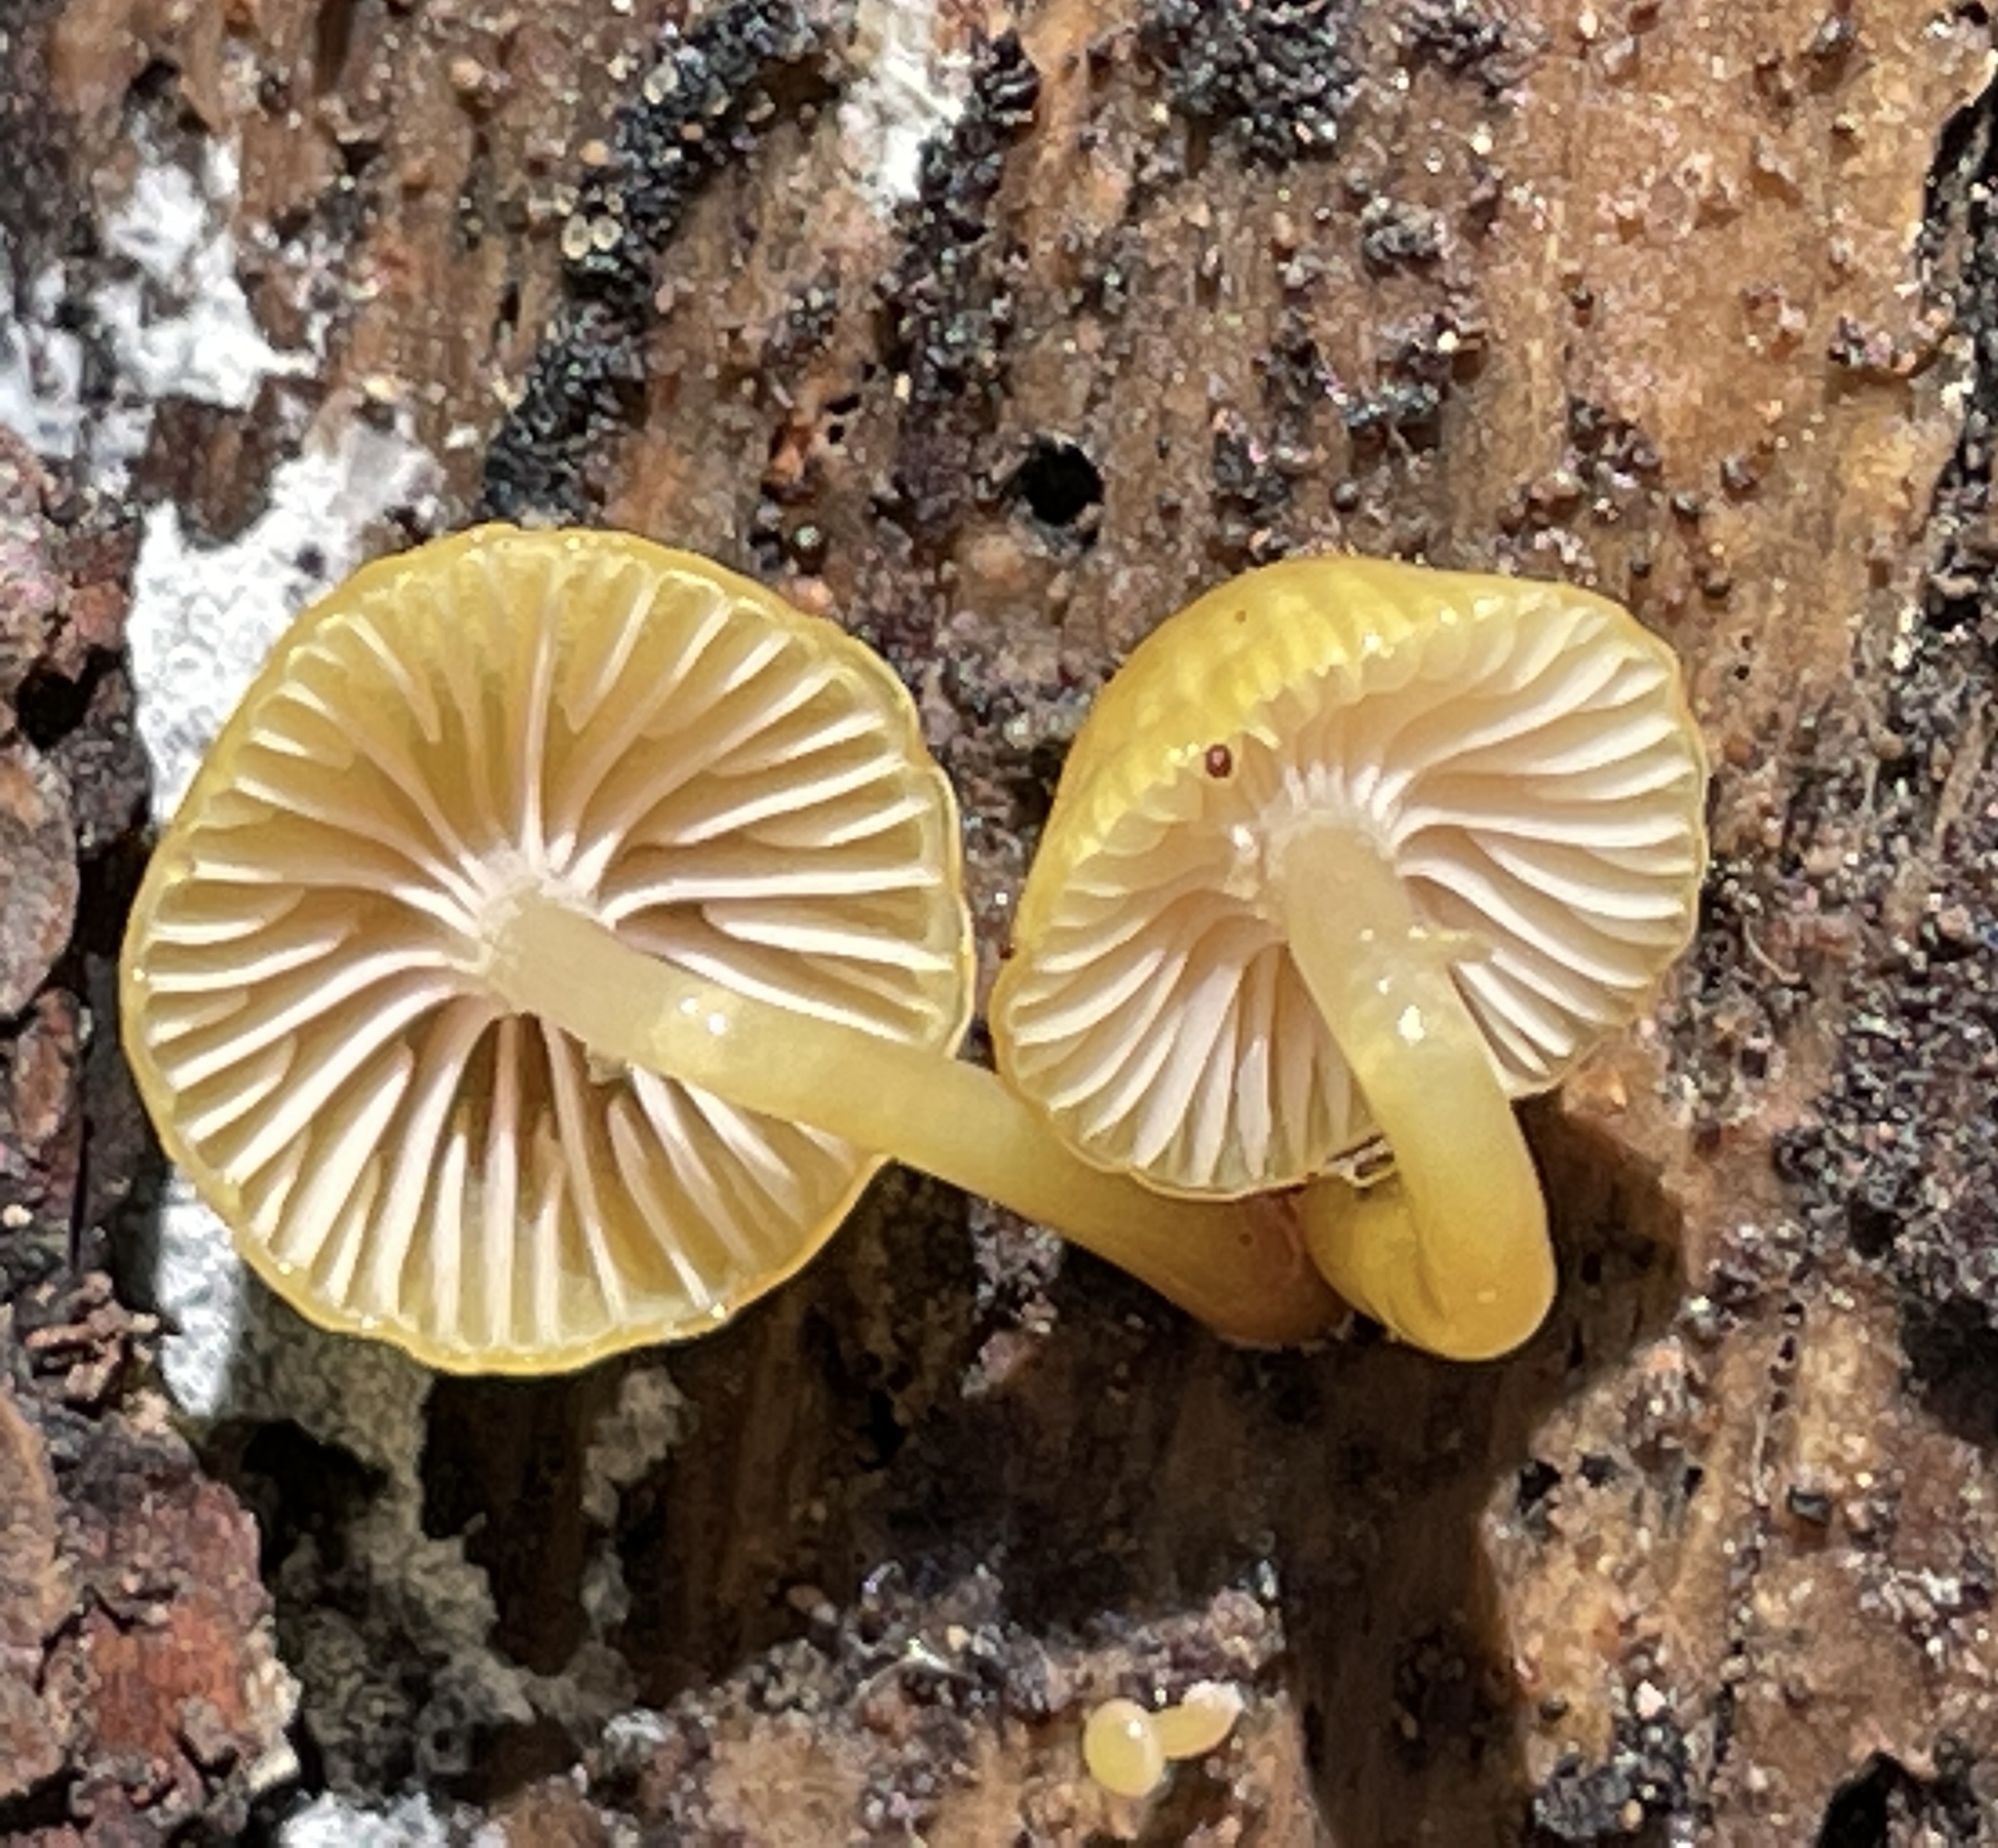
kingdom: Fungi
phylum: Basidiomycota
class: Agaricomycetes
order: Agaricales
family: Hygrophoraceae
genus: Chromosera
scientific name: Chromosera cyanophylla
